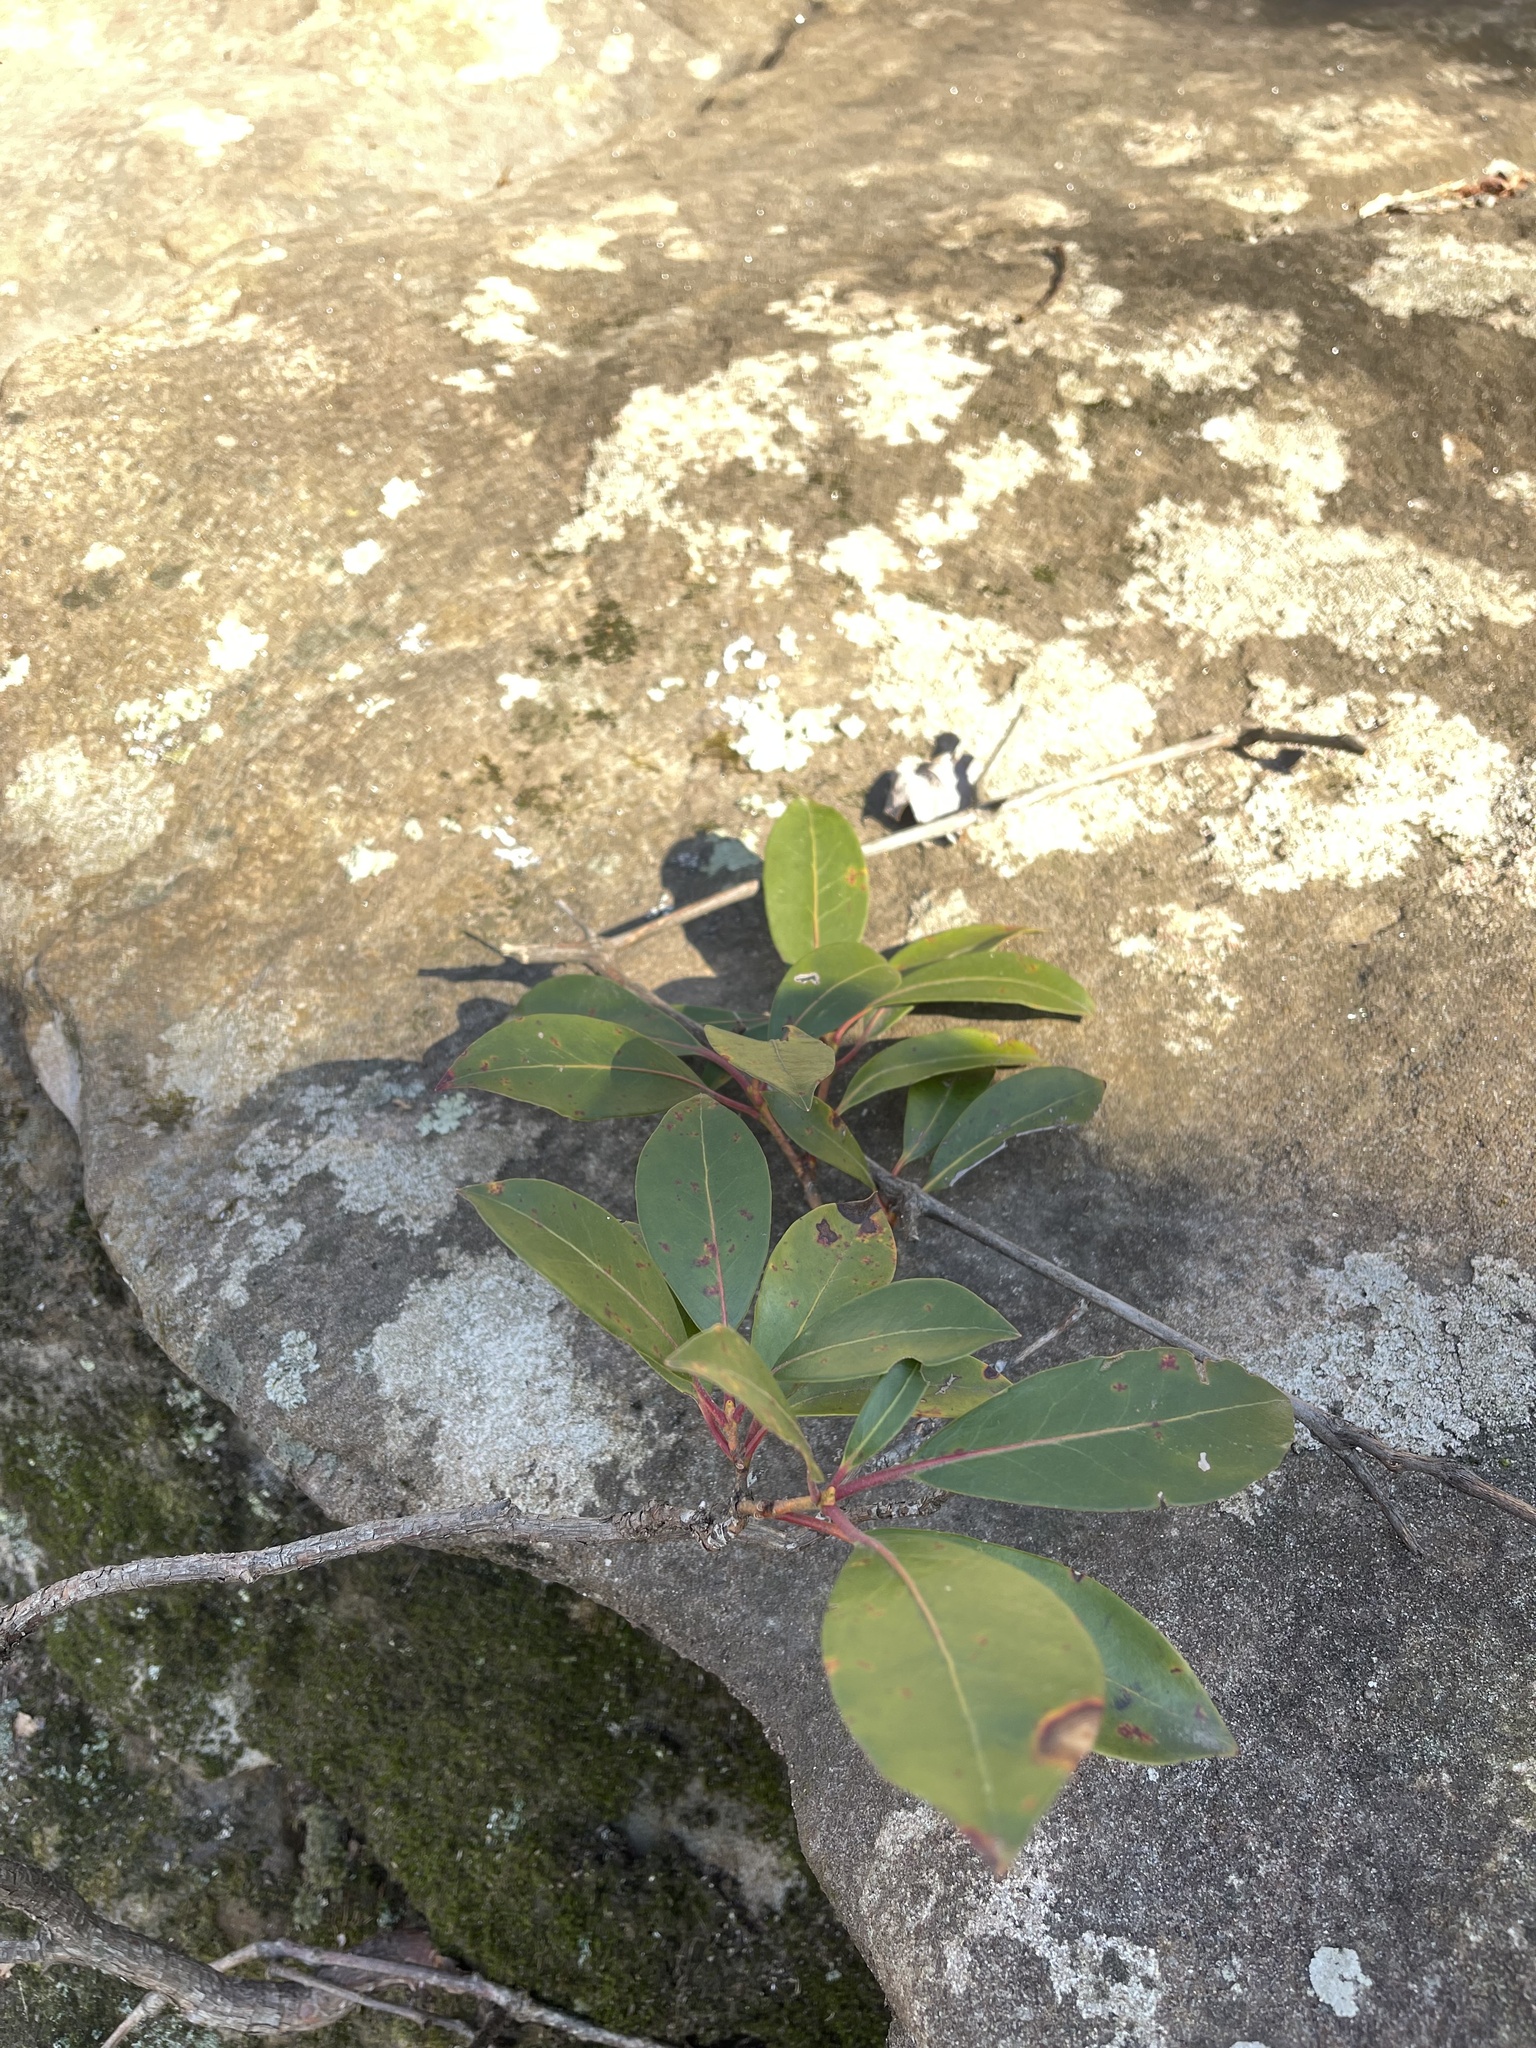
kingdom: Plantae
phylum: Tracheophyta
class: Magnoliopsida
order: Ericales
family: Ericaceae
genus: Kalmia
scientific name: Kalmia latifolia
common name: Mountain-laurel
